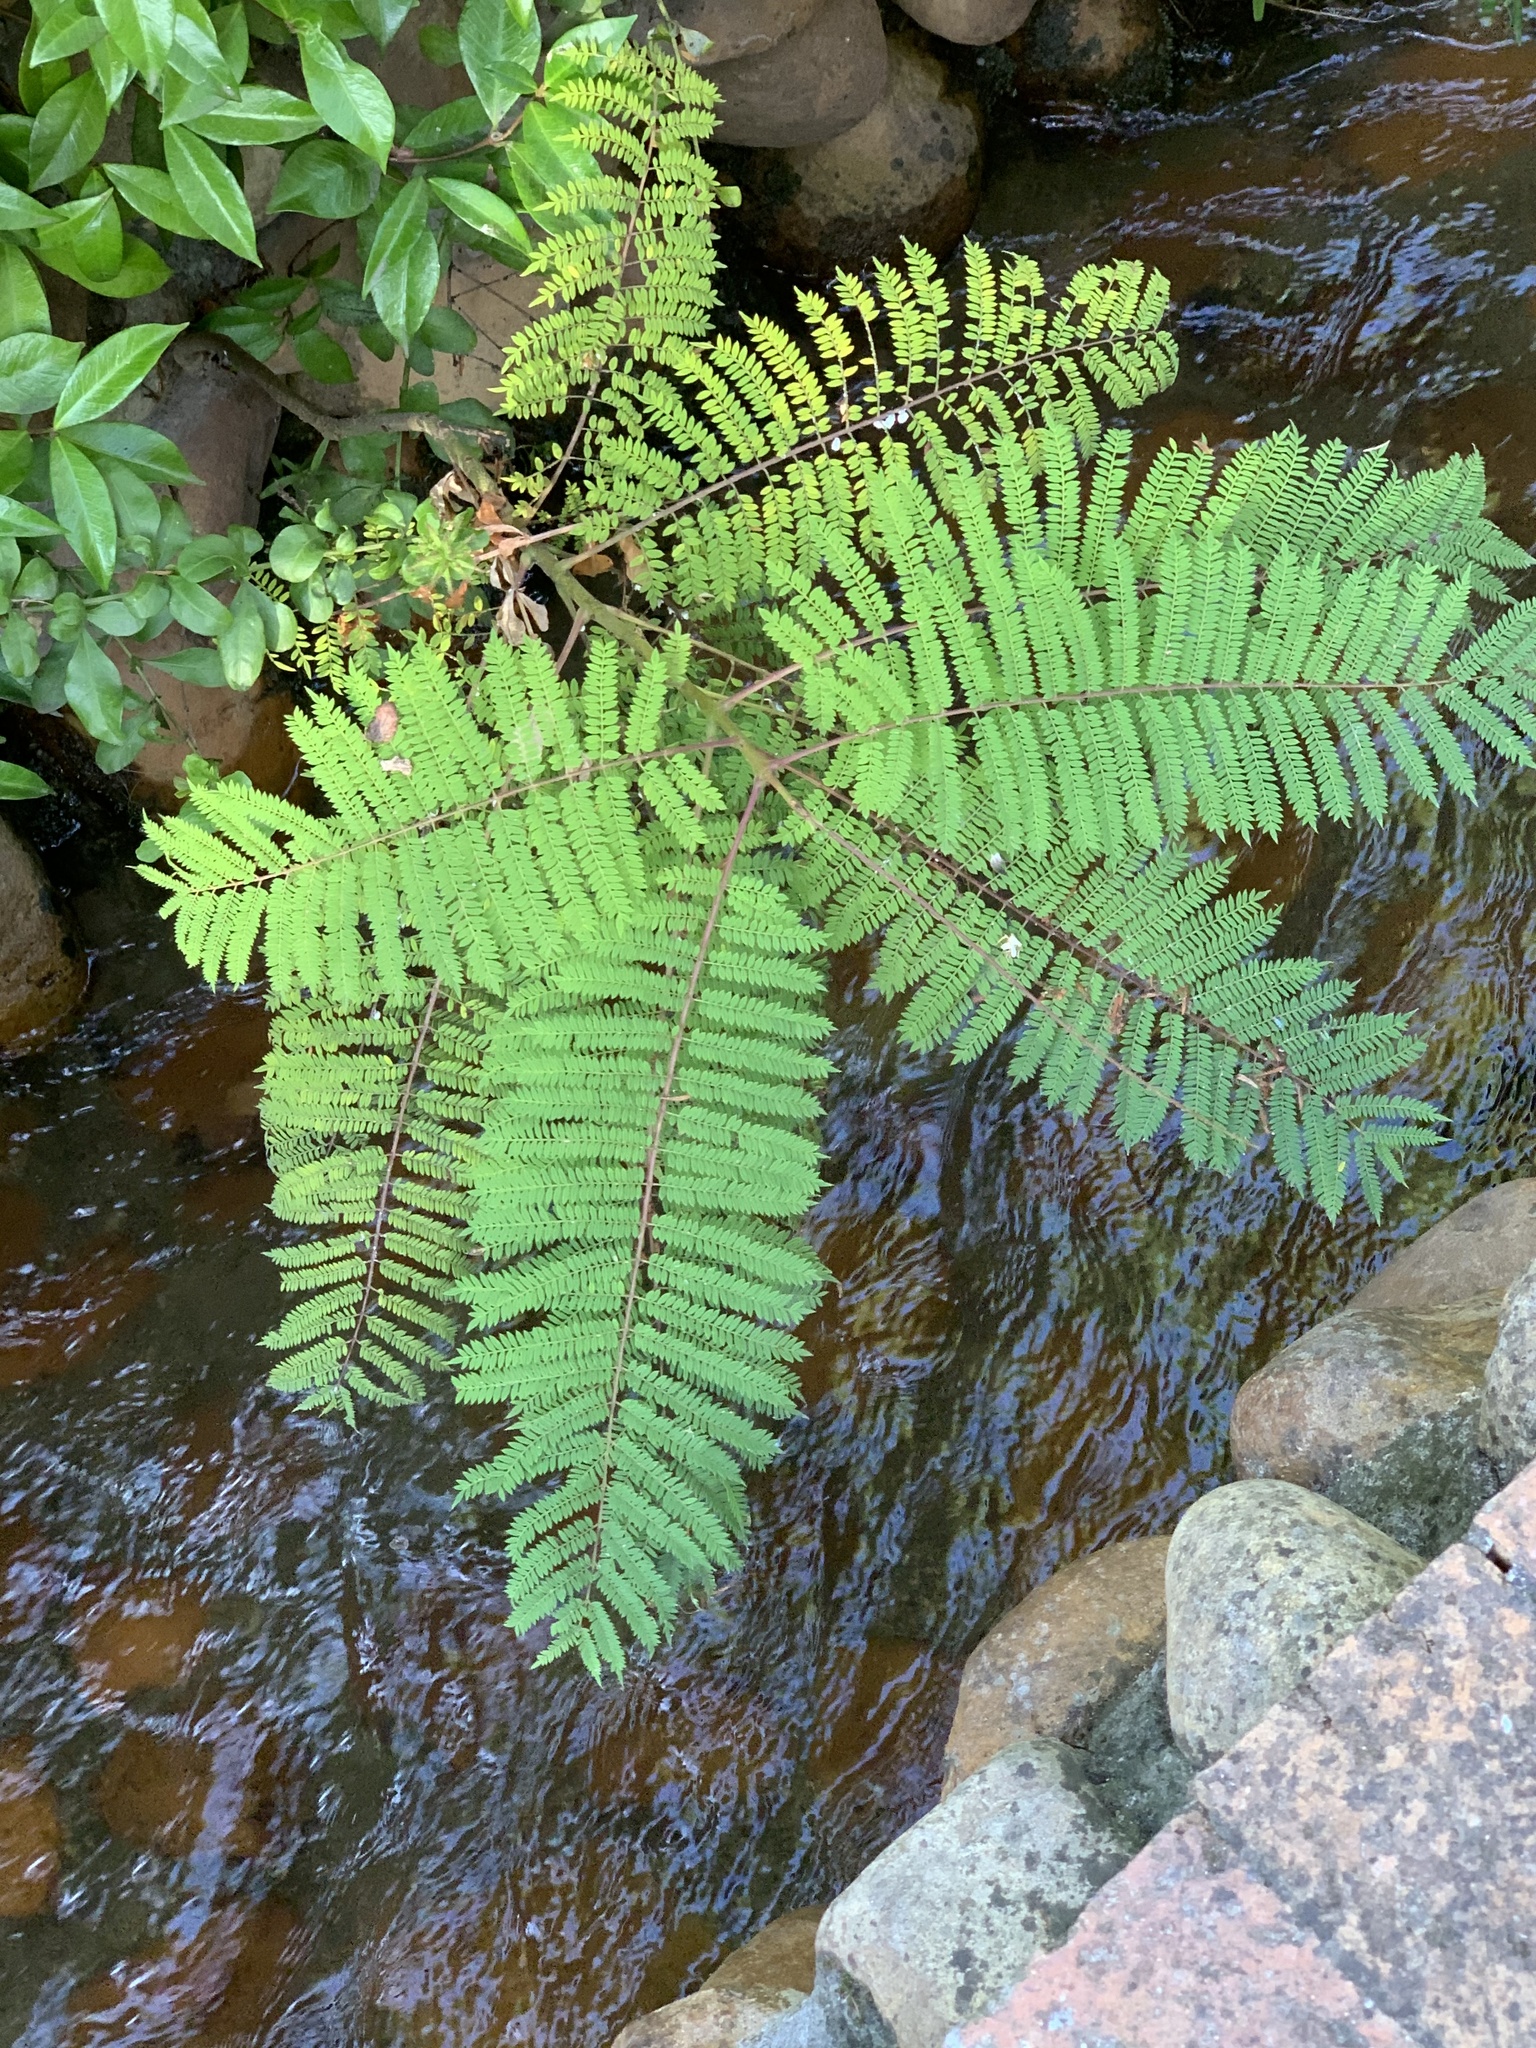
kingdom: Plantae
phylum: Tracheophyta
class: Magnoliopsida
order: Lamiales
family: Bignoniaceae
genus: Jacaranda
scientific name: Jacaranda mimosifolia
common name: Black poui
